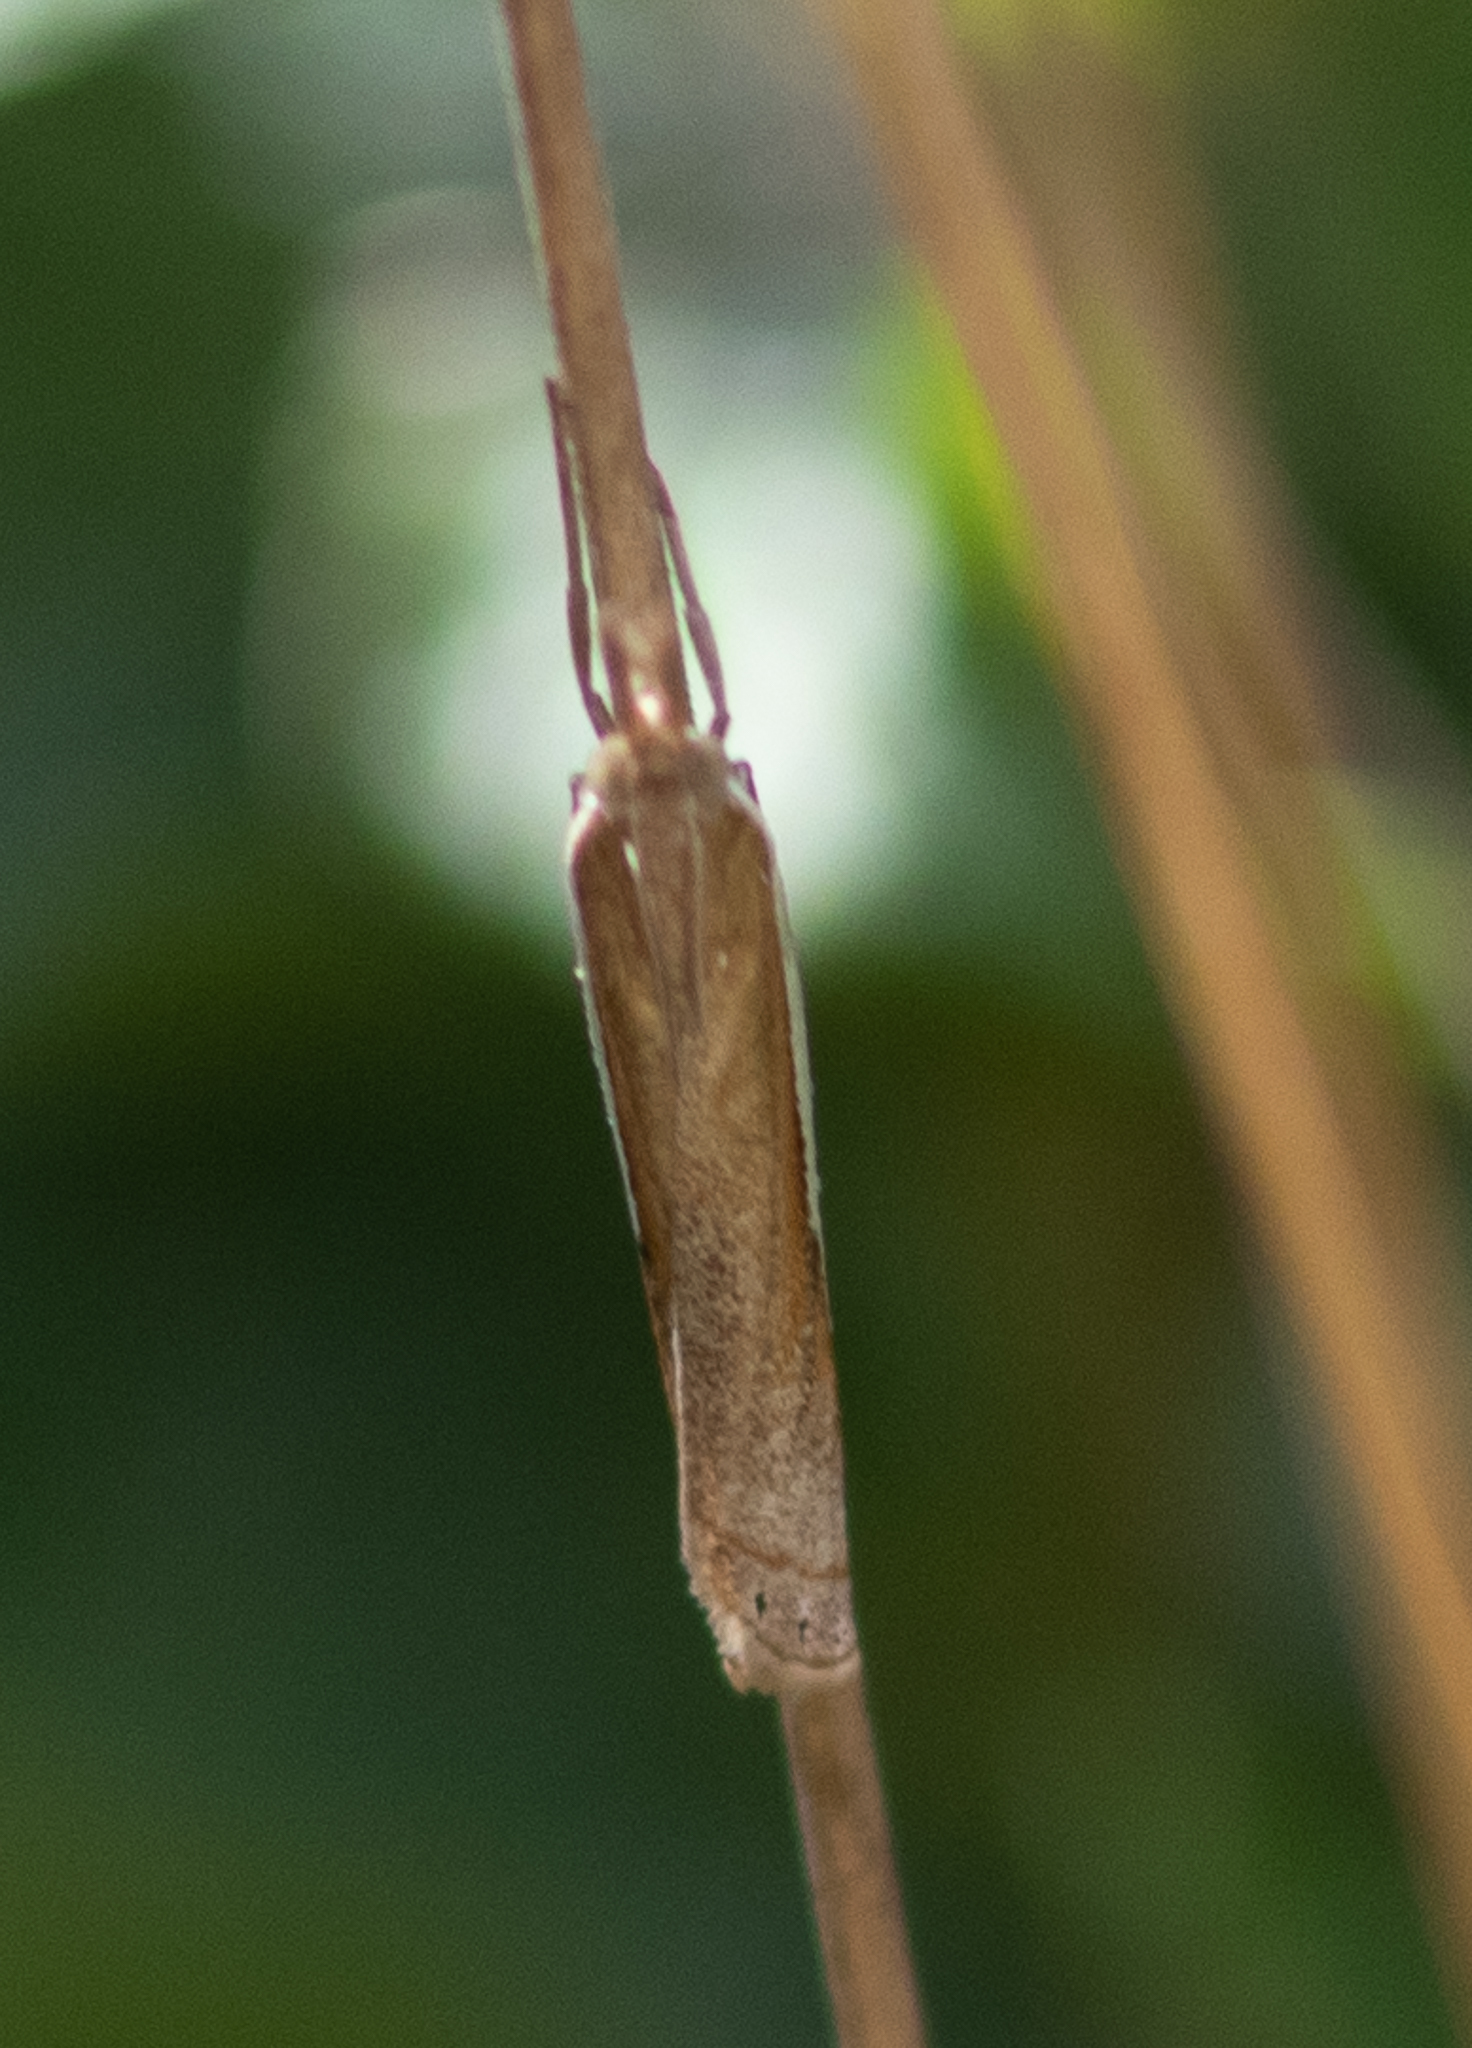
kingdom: Animalia
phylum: Arthropoda
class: Insecta
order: Lepidoptera
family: Crambidae
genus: Crambus
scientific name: Crambus
